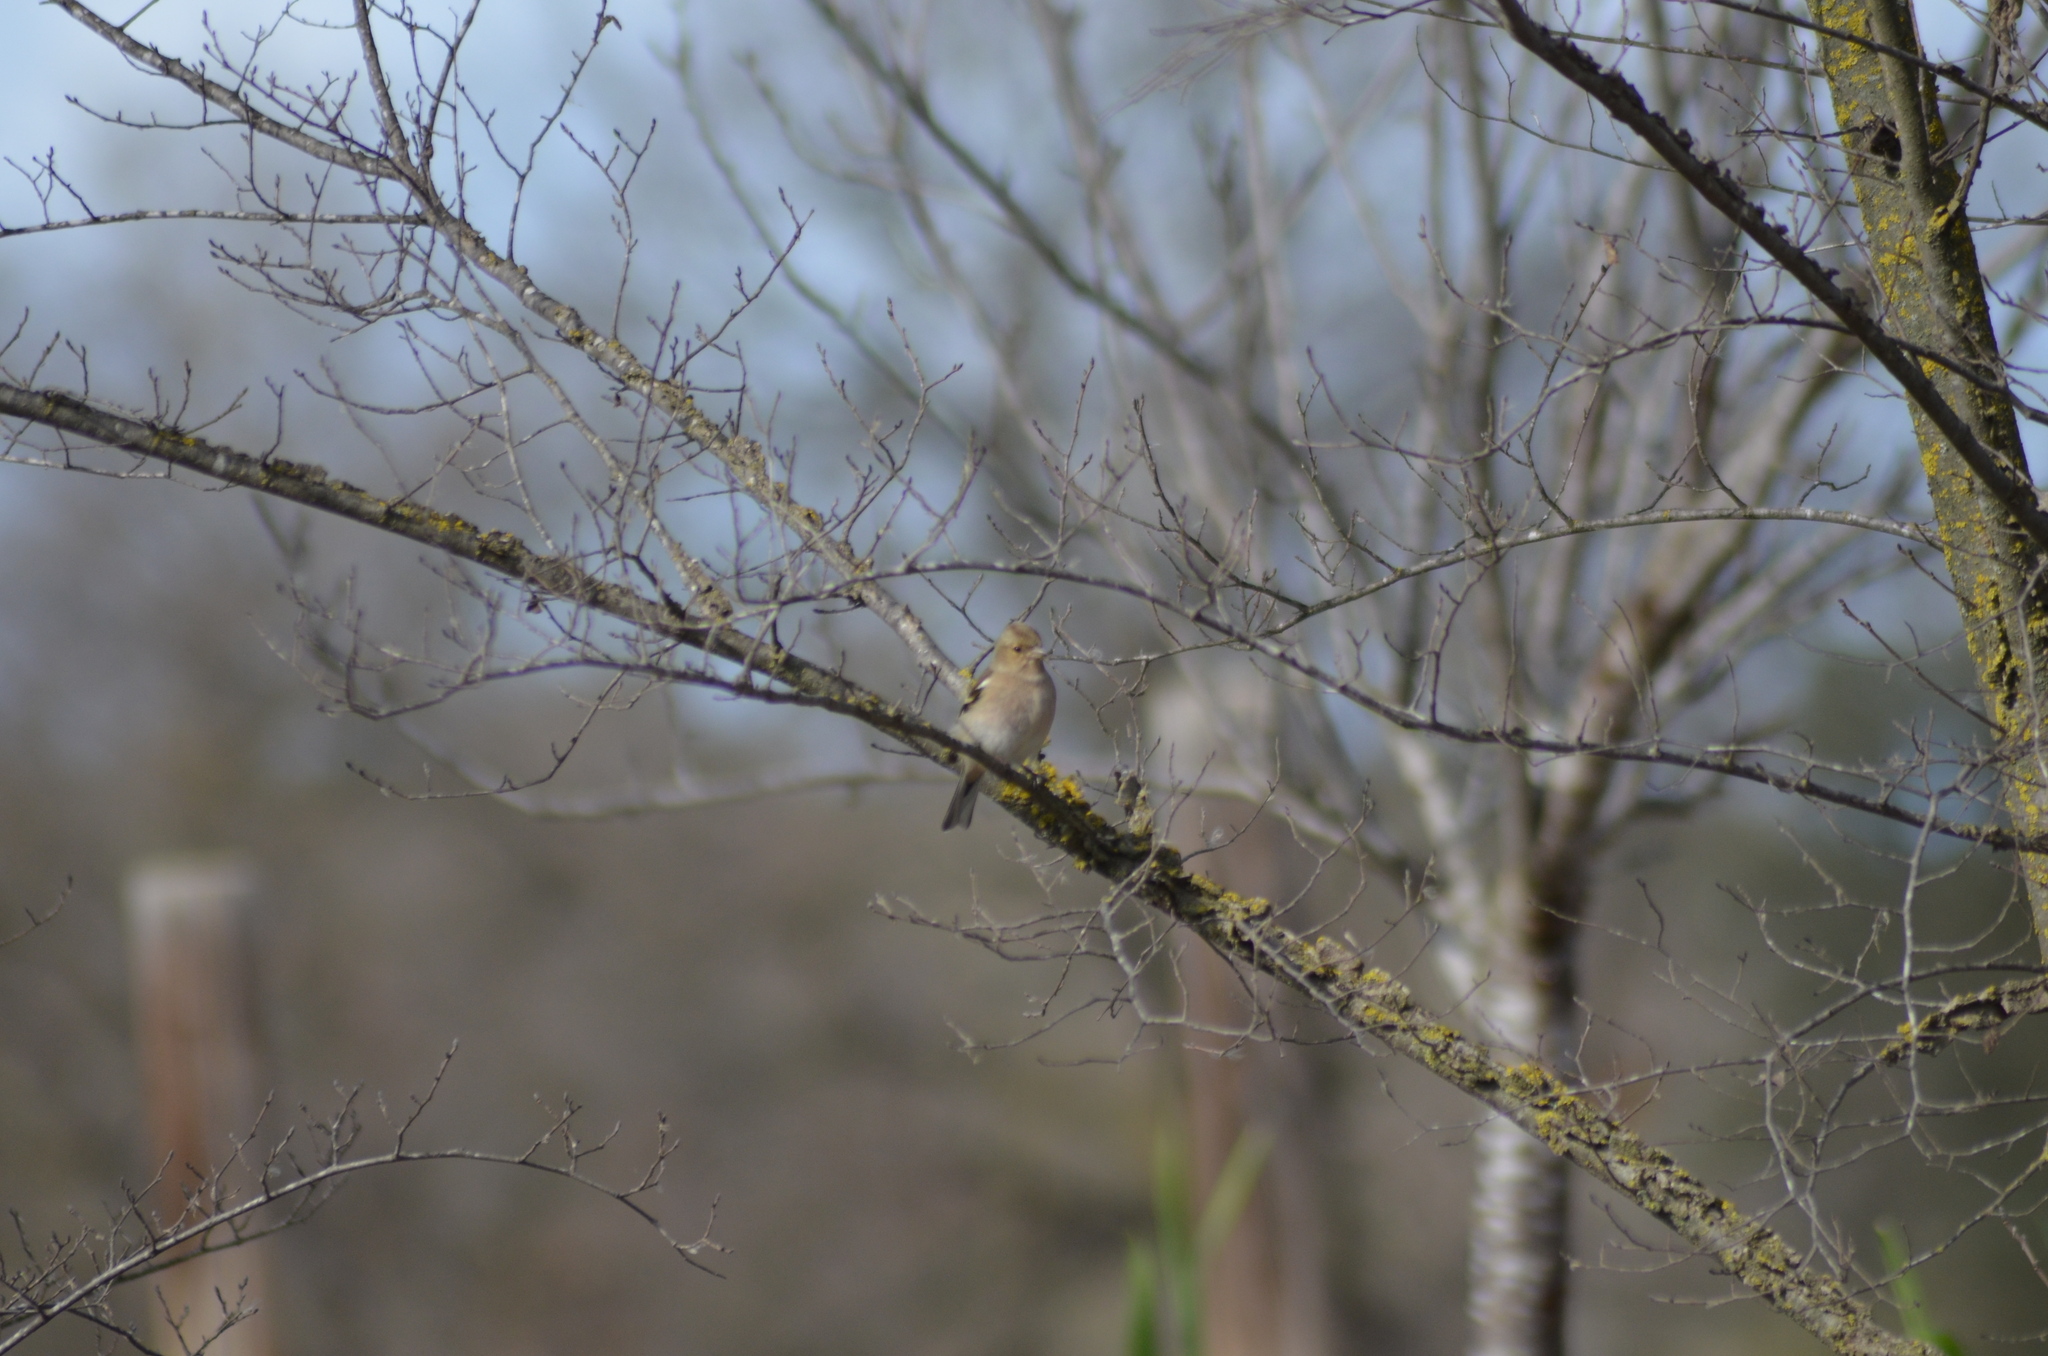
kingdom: Animalia
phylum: Chordata
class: Aves
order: Passeriformes
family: Fringillidae
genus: Fringilla
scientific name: Fringilla coelebs
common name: Common chaffinch
